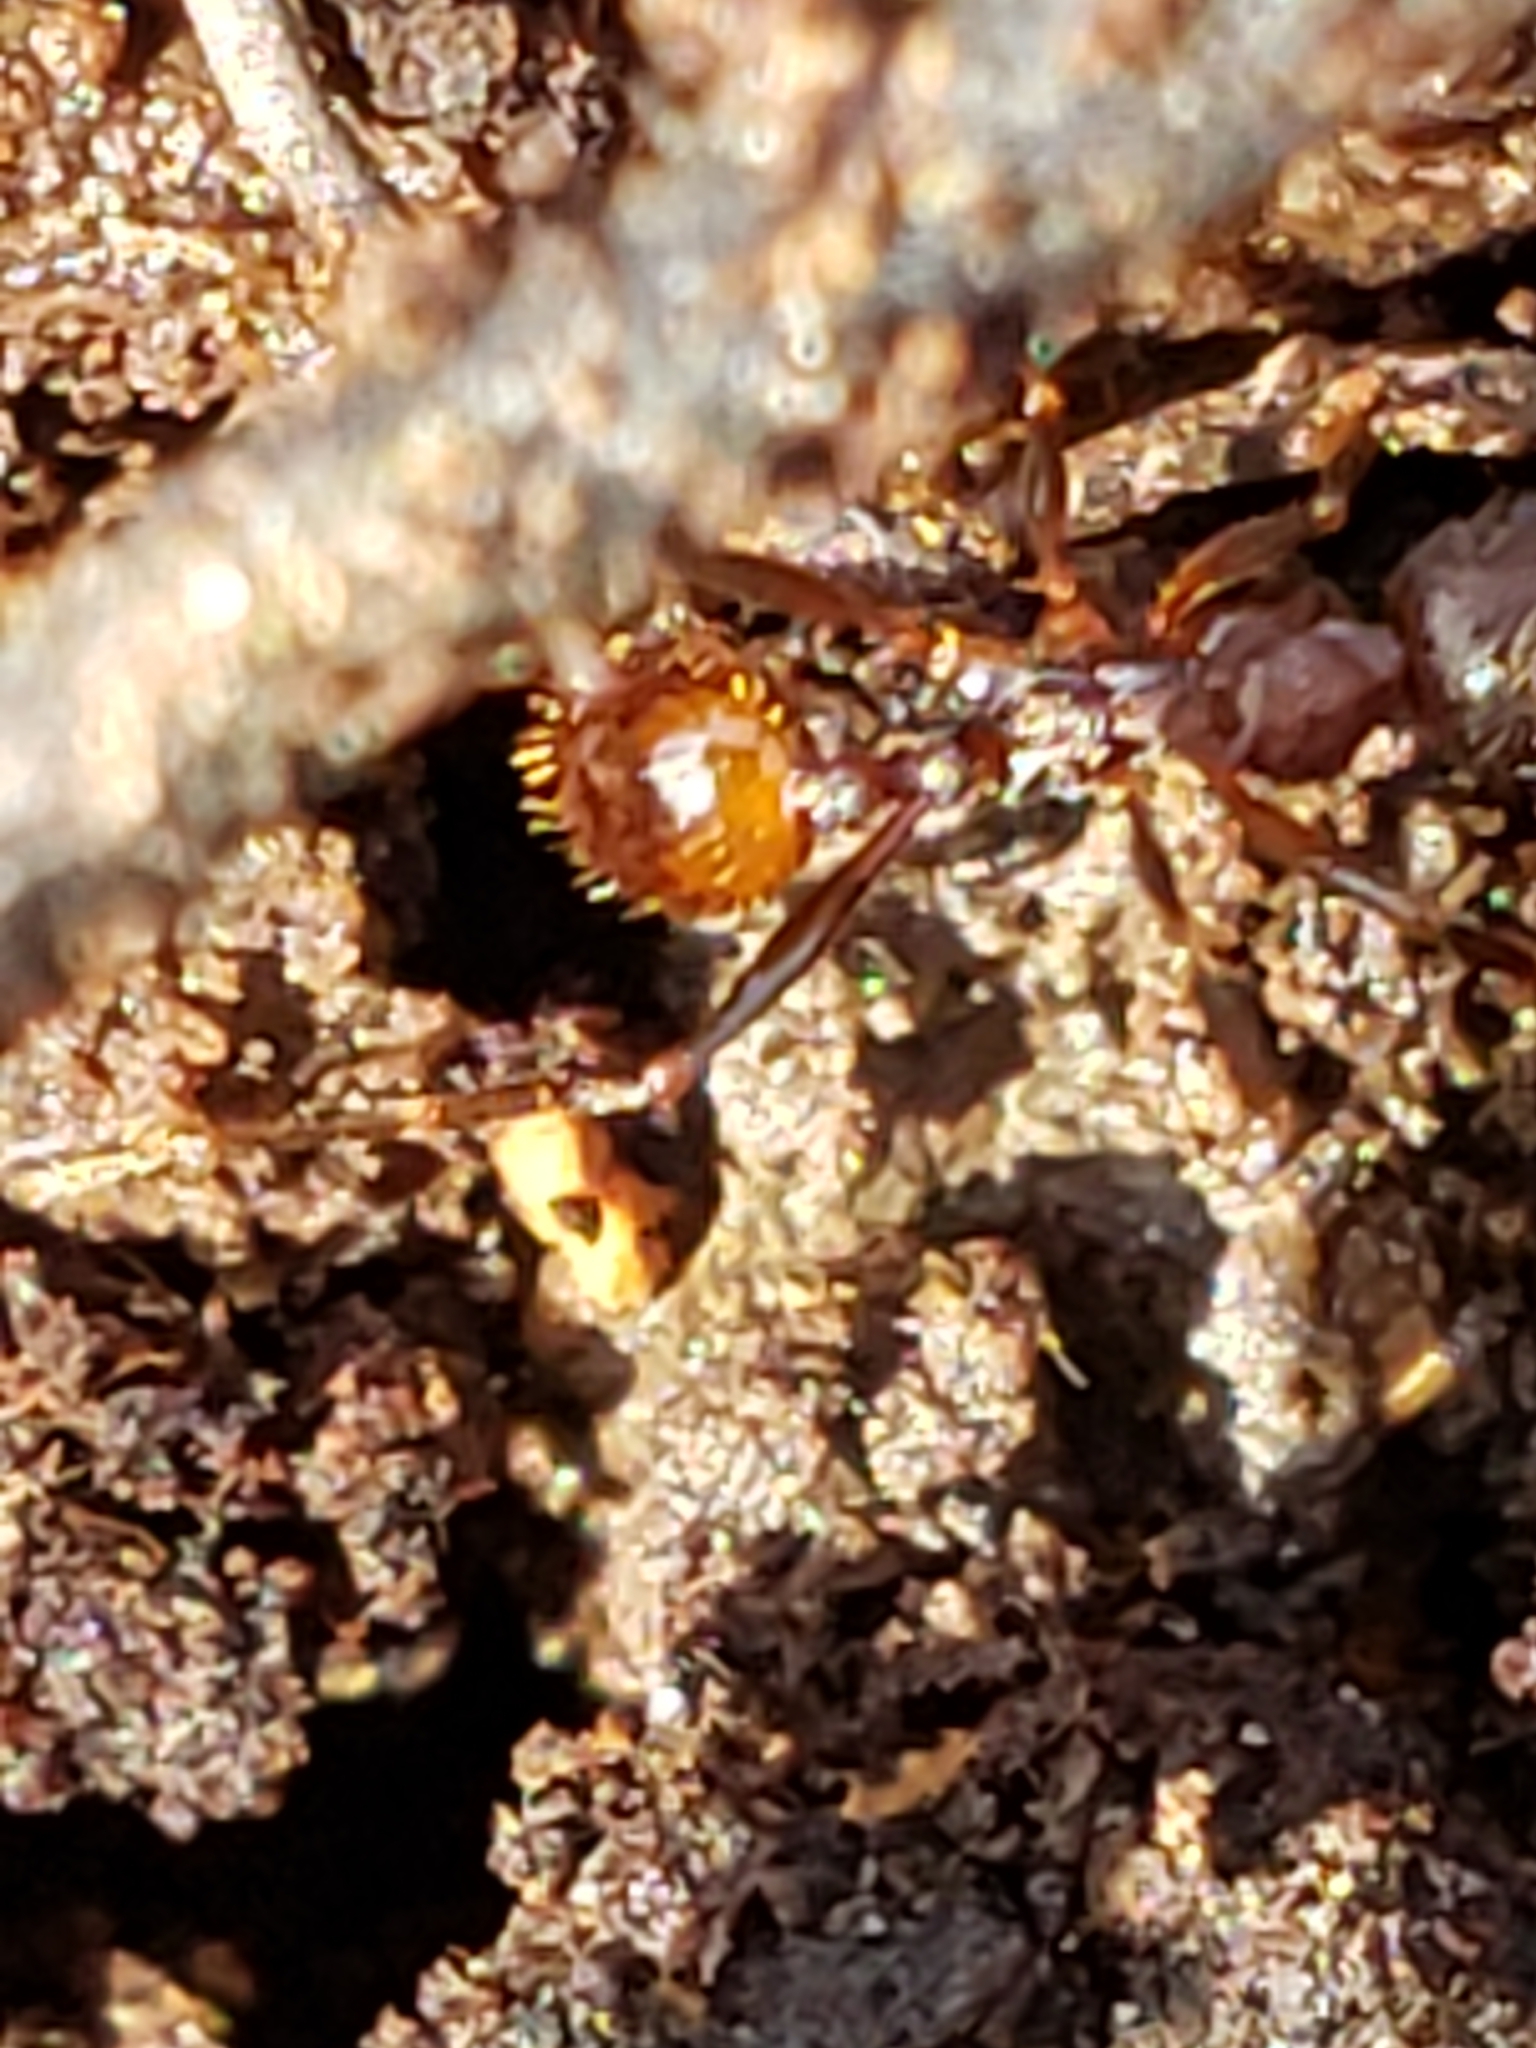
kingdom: Animalia
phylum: Arthropoda
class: Insecta
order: Hymenoptera
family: Formicidae
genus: Aphaenogaster
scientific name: Aphaenogaster fulva
